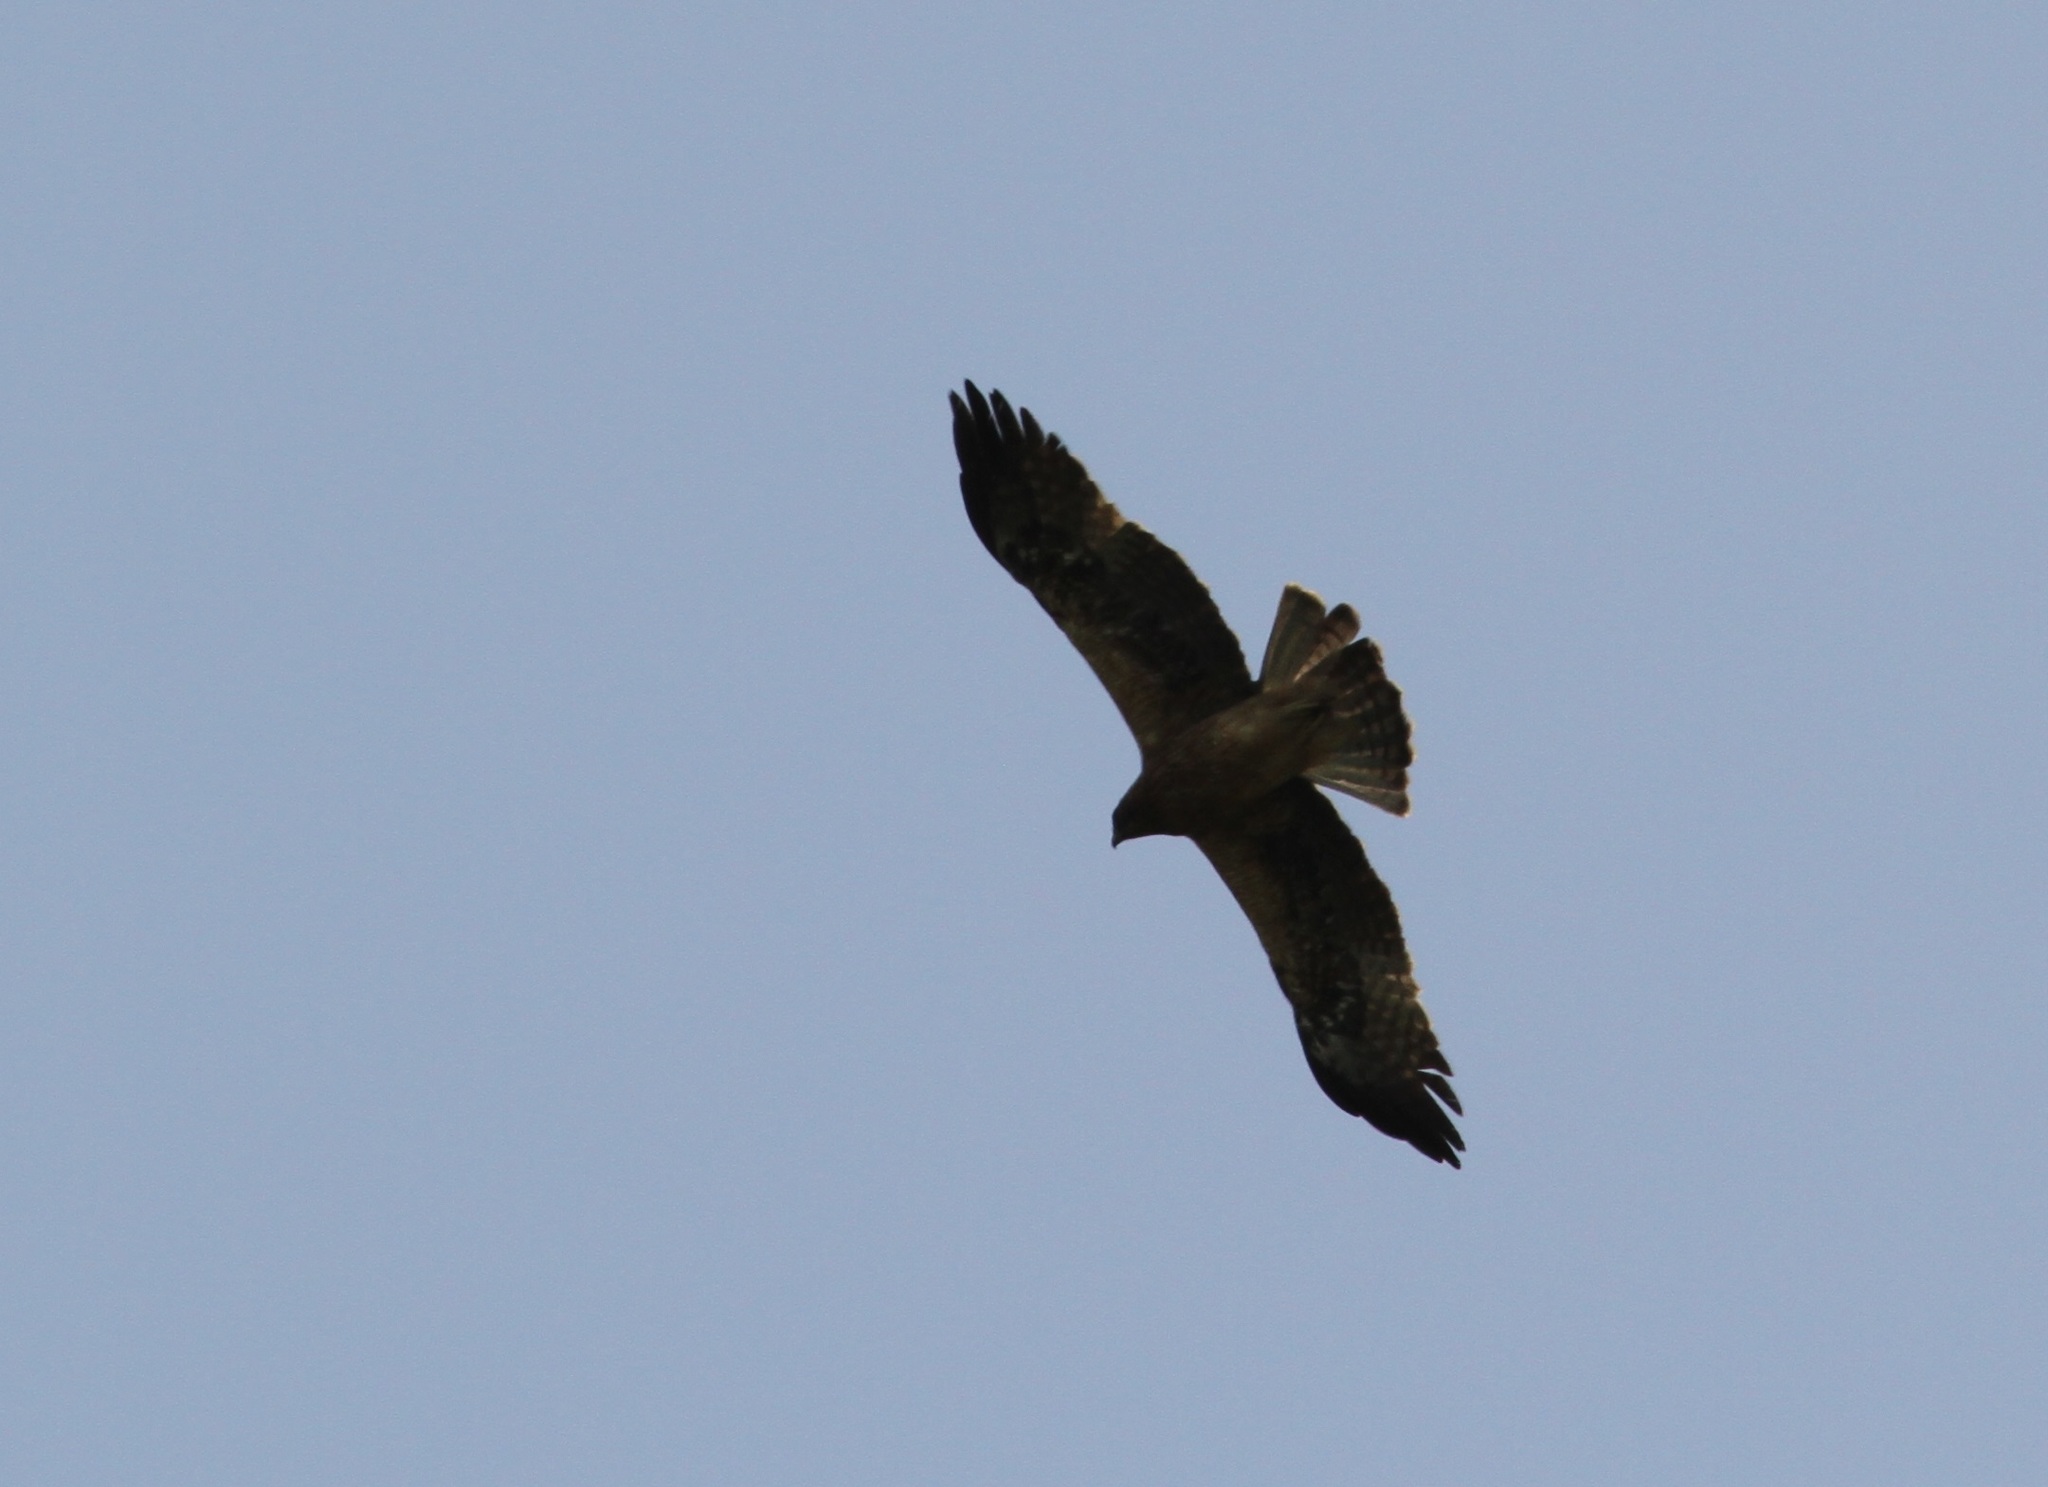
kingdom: Animalia
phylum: Chordata
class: Aves
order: Accipitriformes
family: Accipitridae
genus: Hieraaetus
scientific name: Hieraaetus pennatus
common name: Booted eagle
